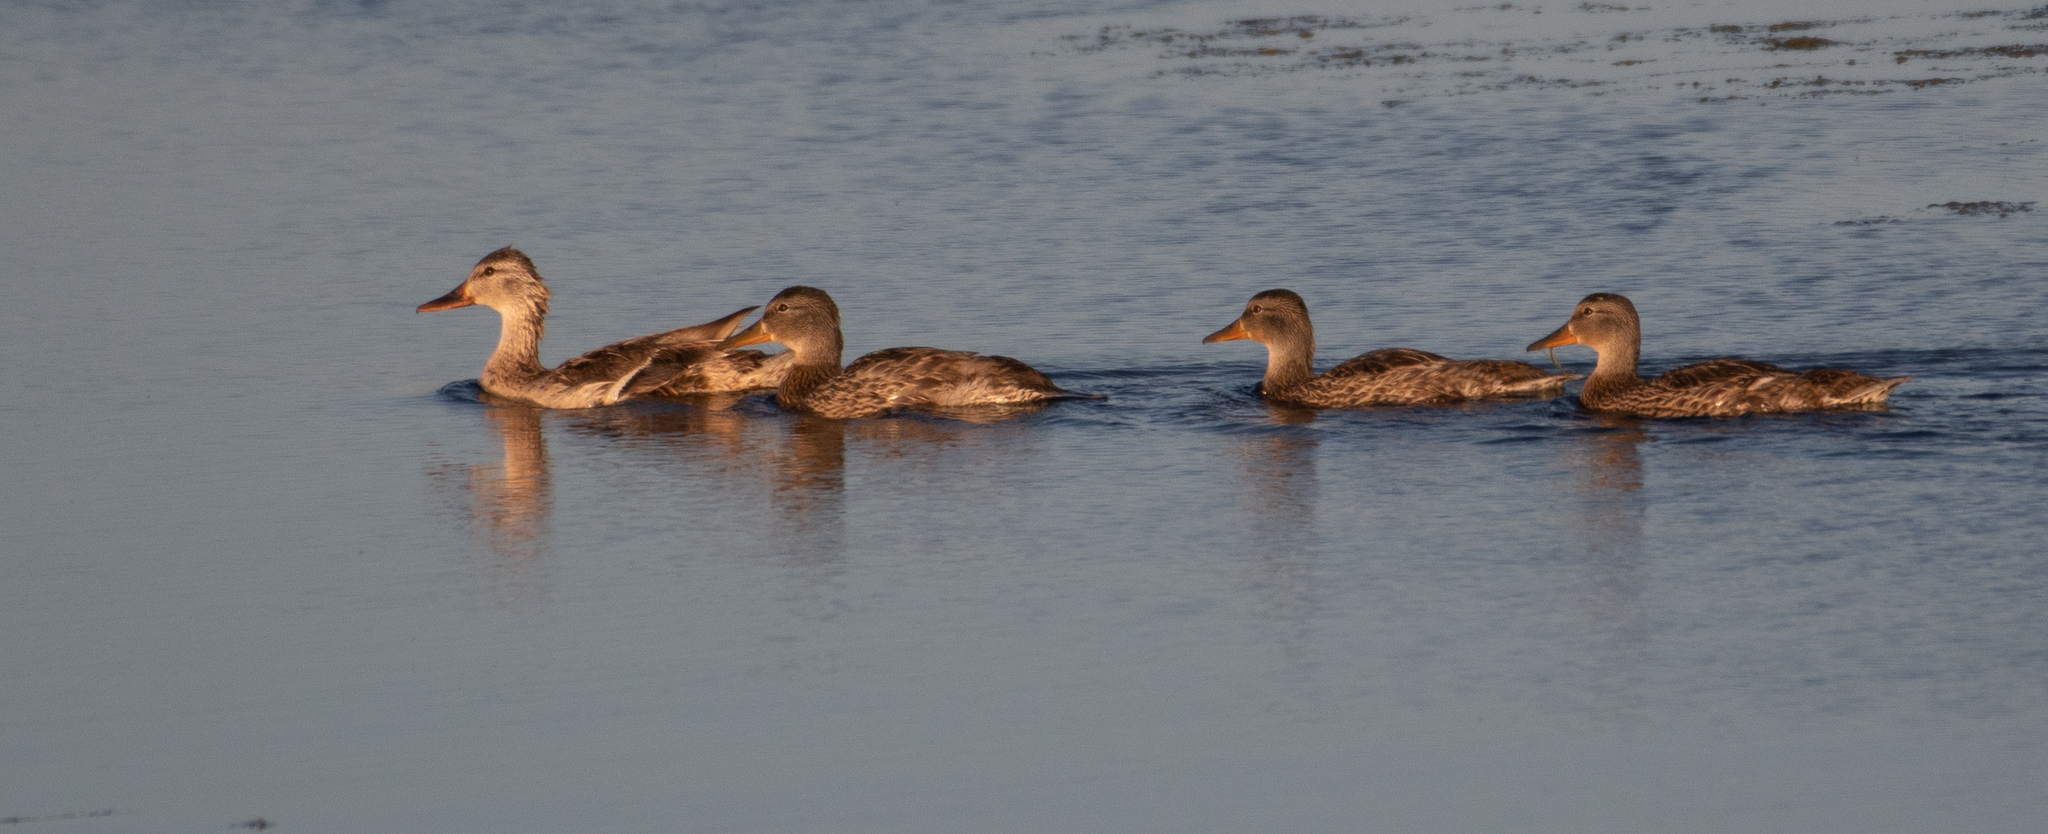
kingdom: Animalia
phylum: Chordata
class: Aves
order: Anseriformes
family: Anatidae
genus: Anas
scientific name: Anas platyrhynchos
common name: Mallard
